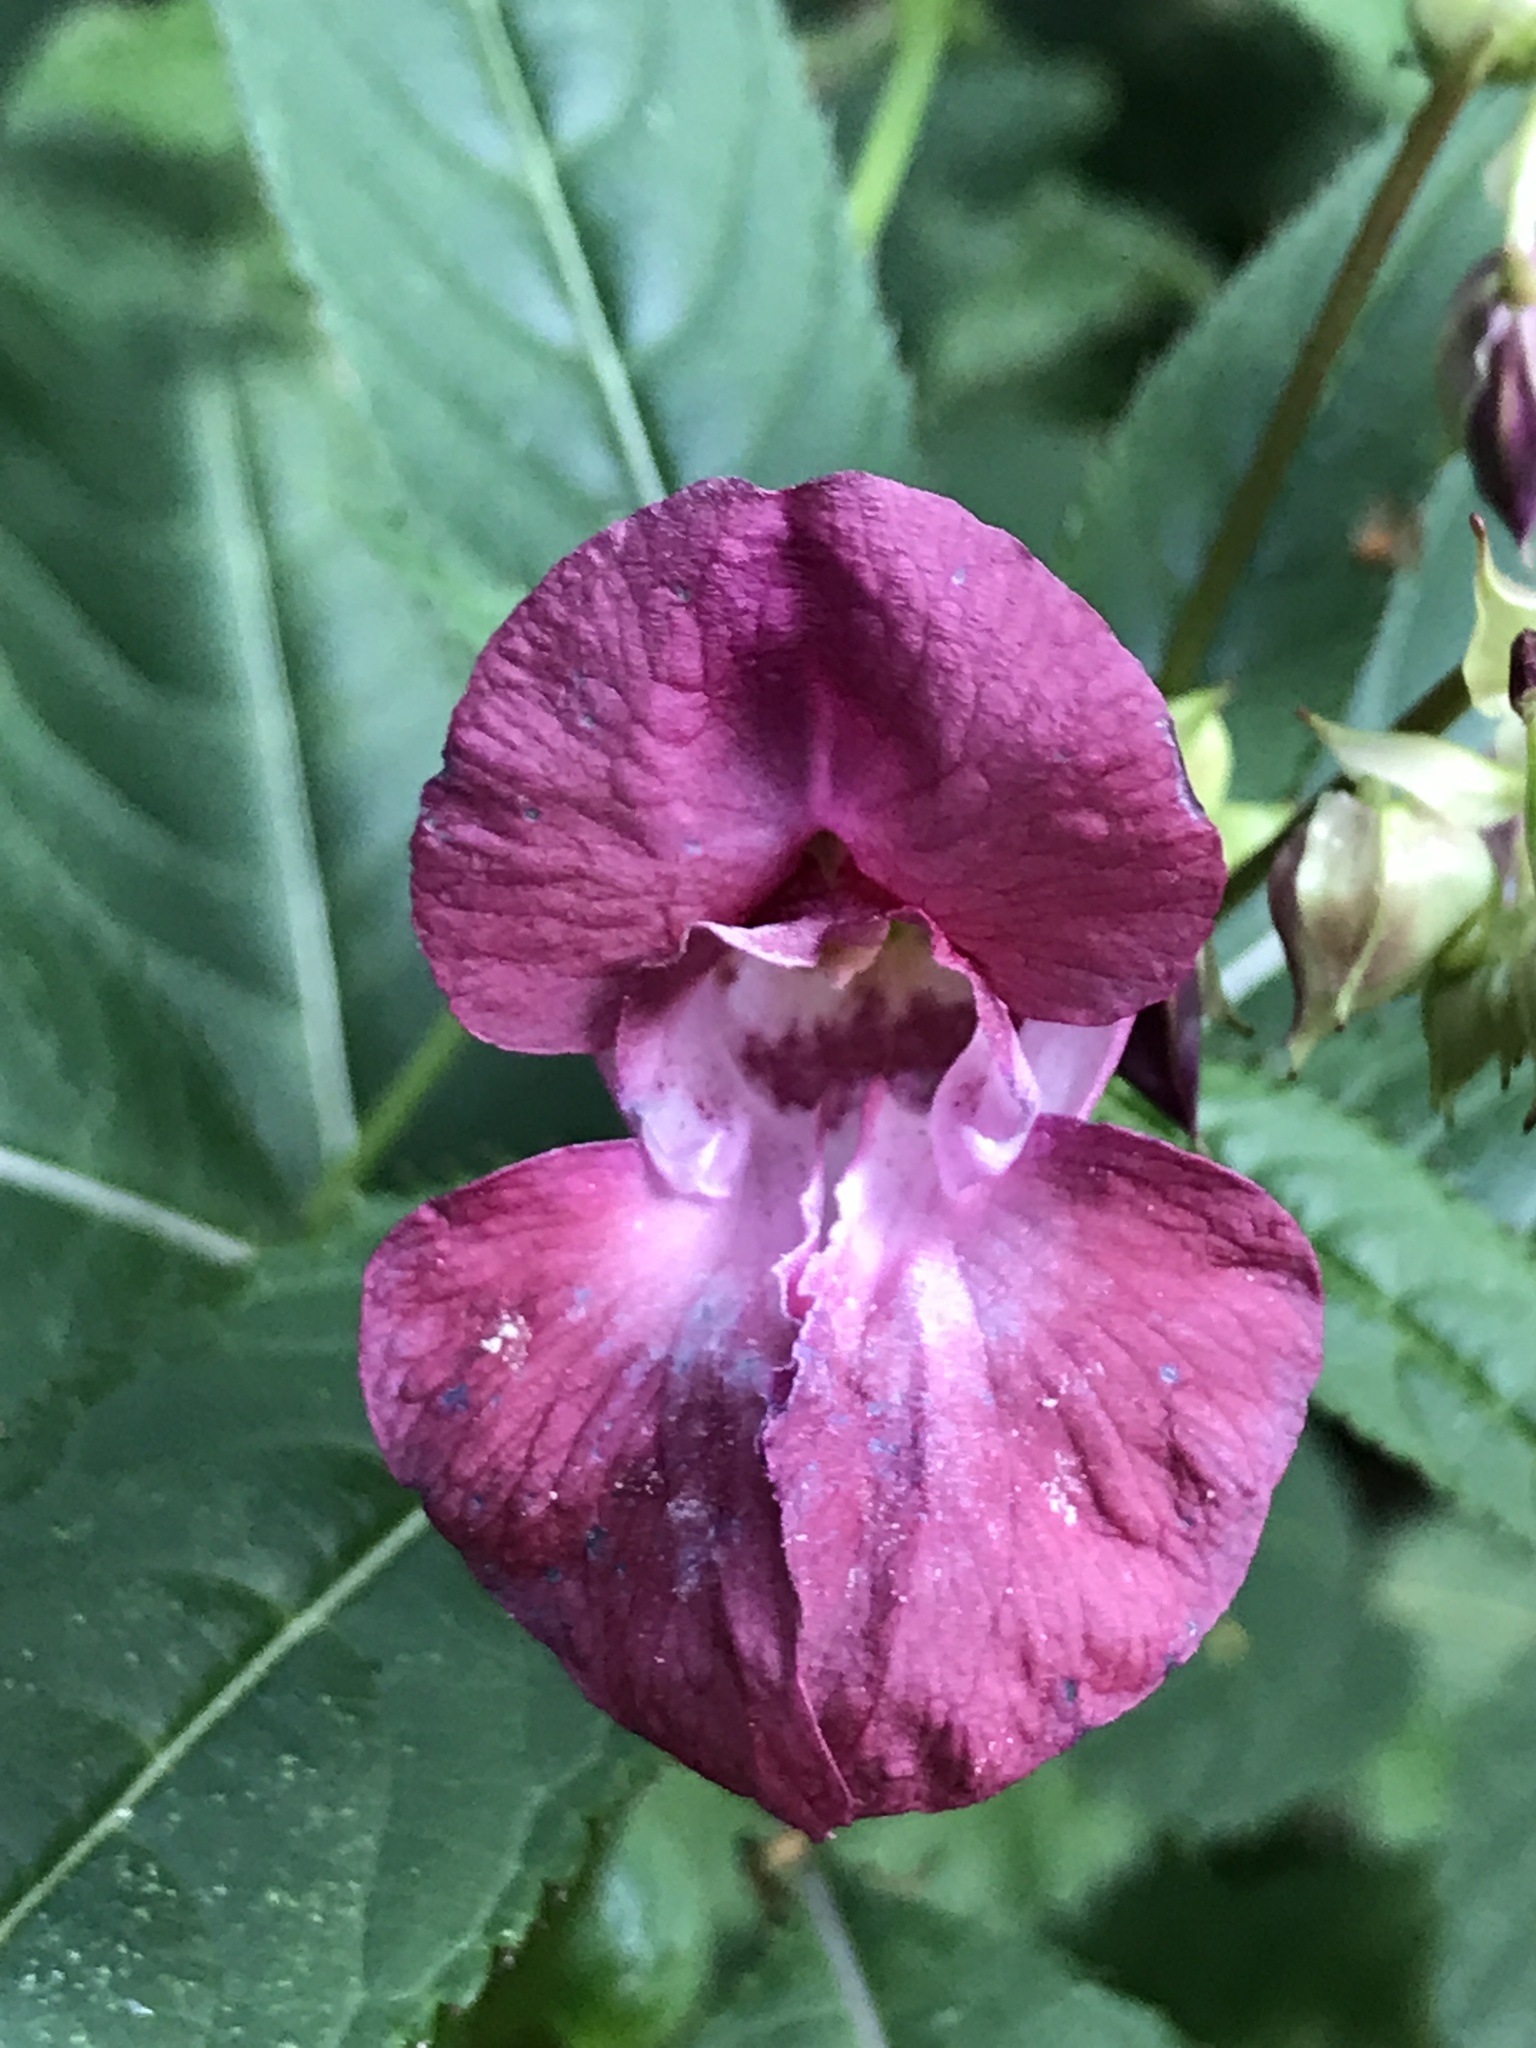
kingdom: Plantae
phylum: Tracheophyta
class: Magnoliopsida
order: Ericales
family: Balsaminaceae
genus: Impatiens
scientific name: Impatiens balfourii
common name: Balfour's touch-me-not
